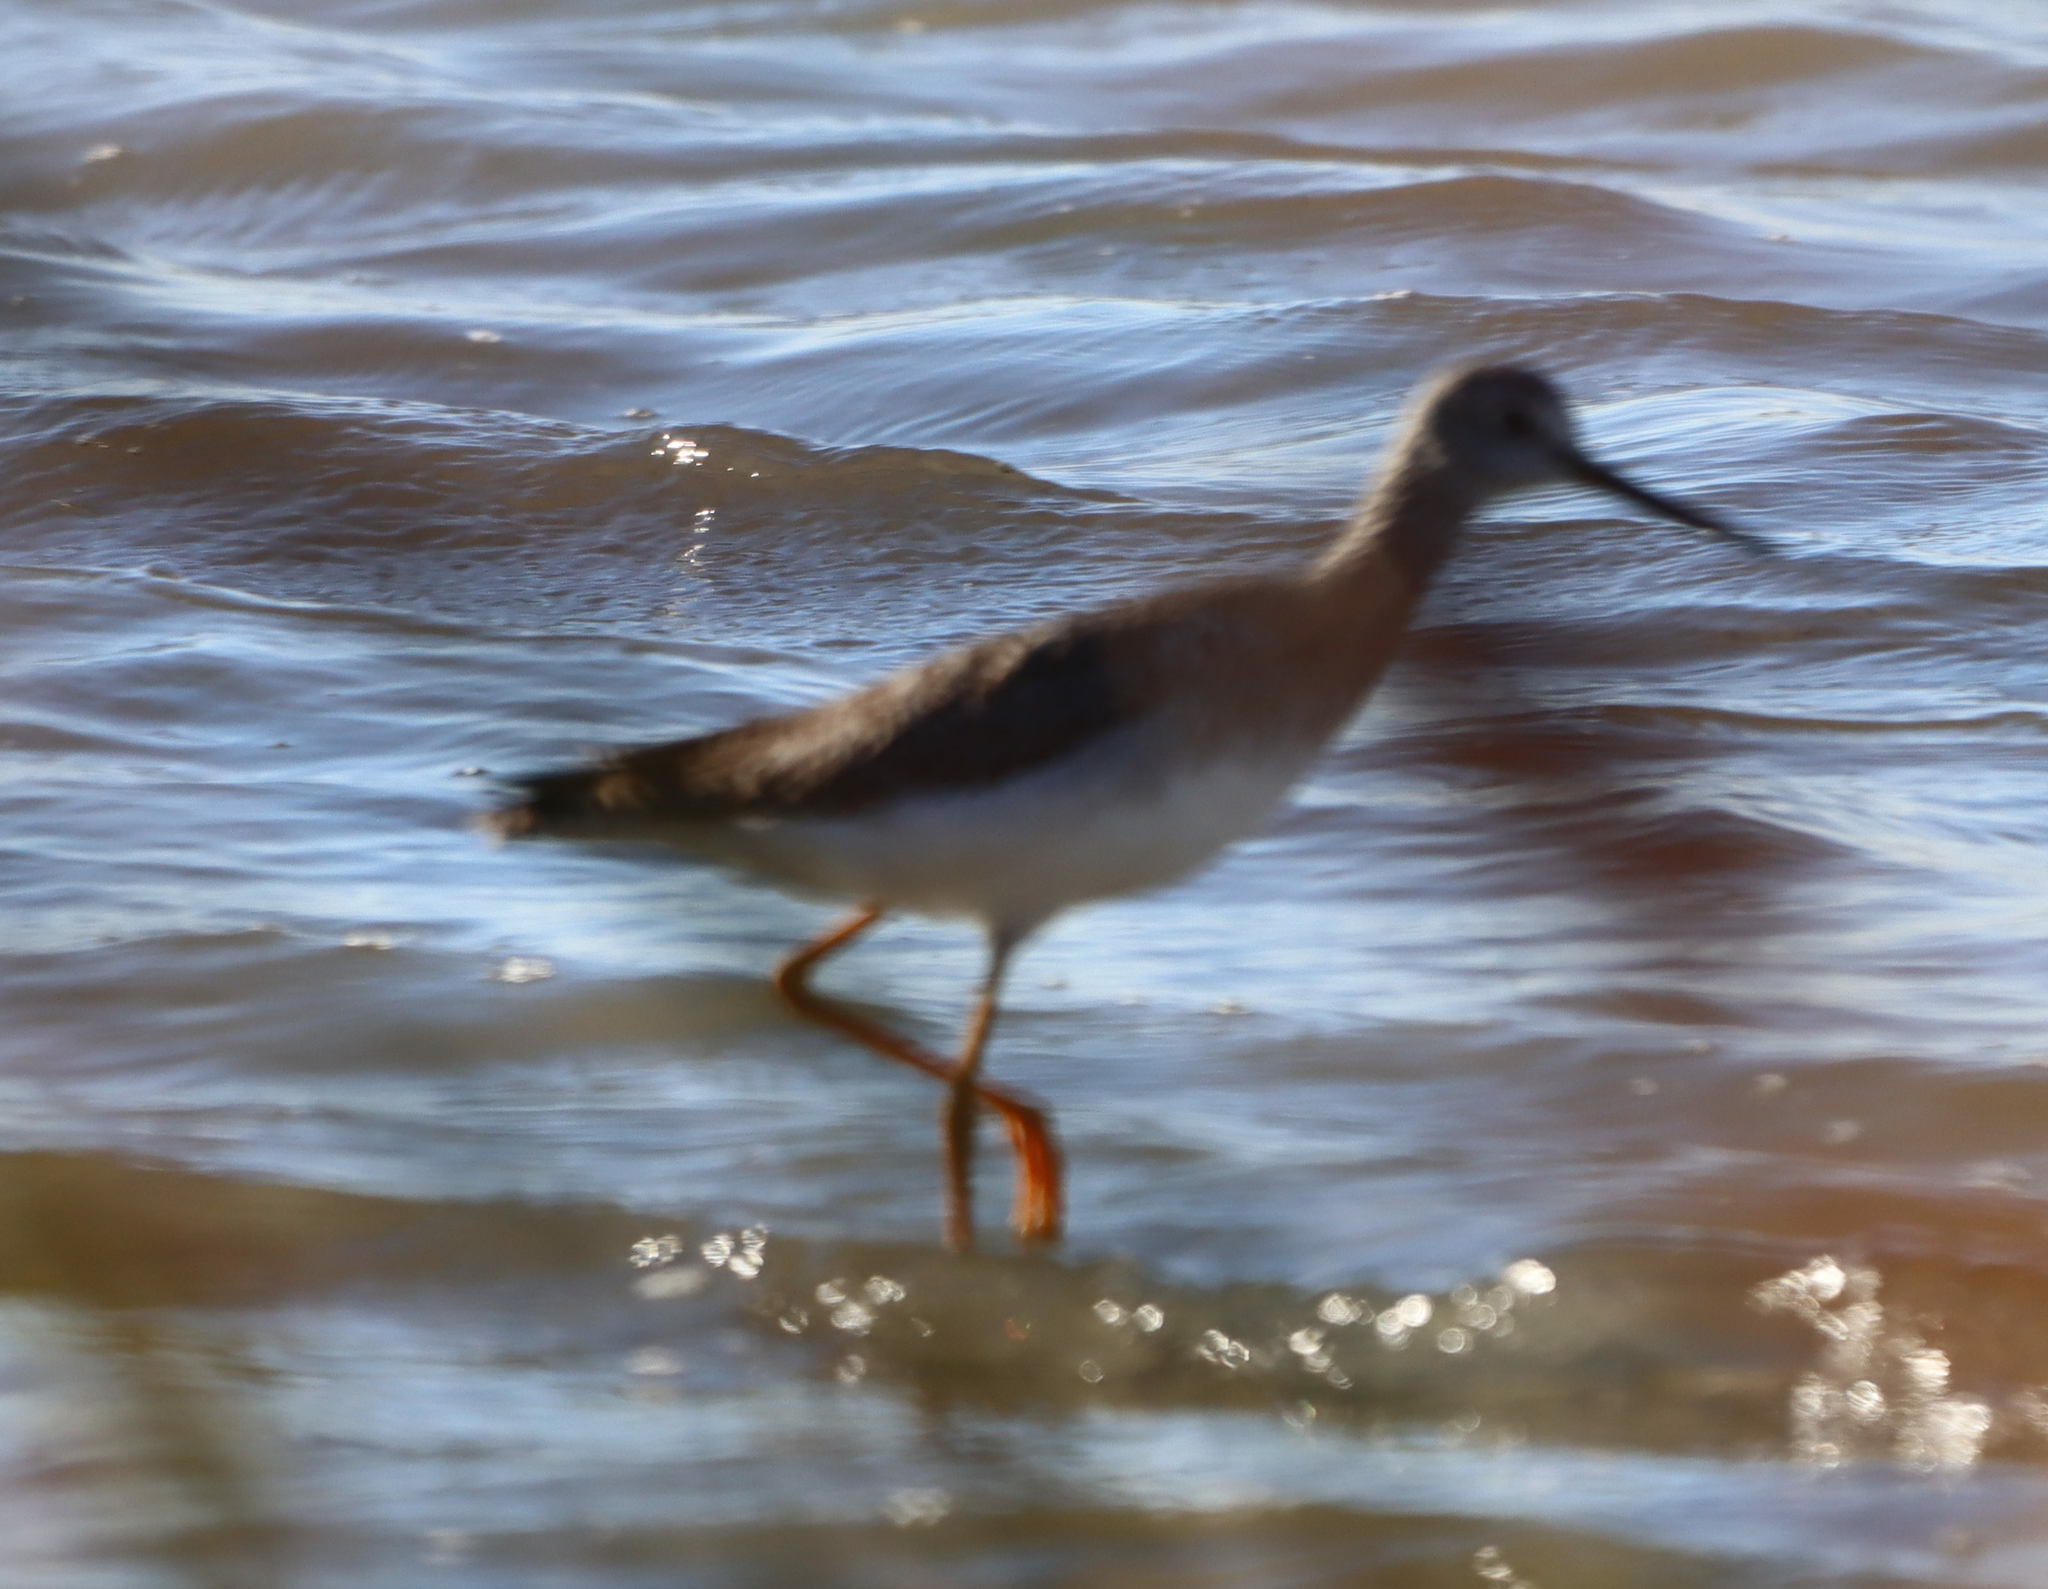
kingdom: Animalia
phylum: Chordata
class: Aves
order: Charadriiformes
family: Scolopacidae
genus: Tringa
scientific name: Tringa melanoleuca
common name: Greater yellowlegs
